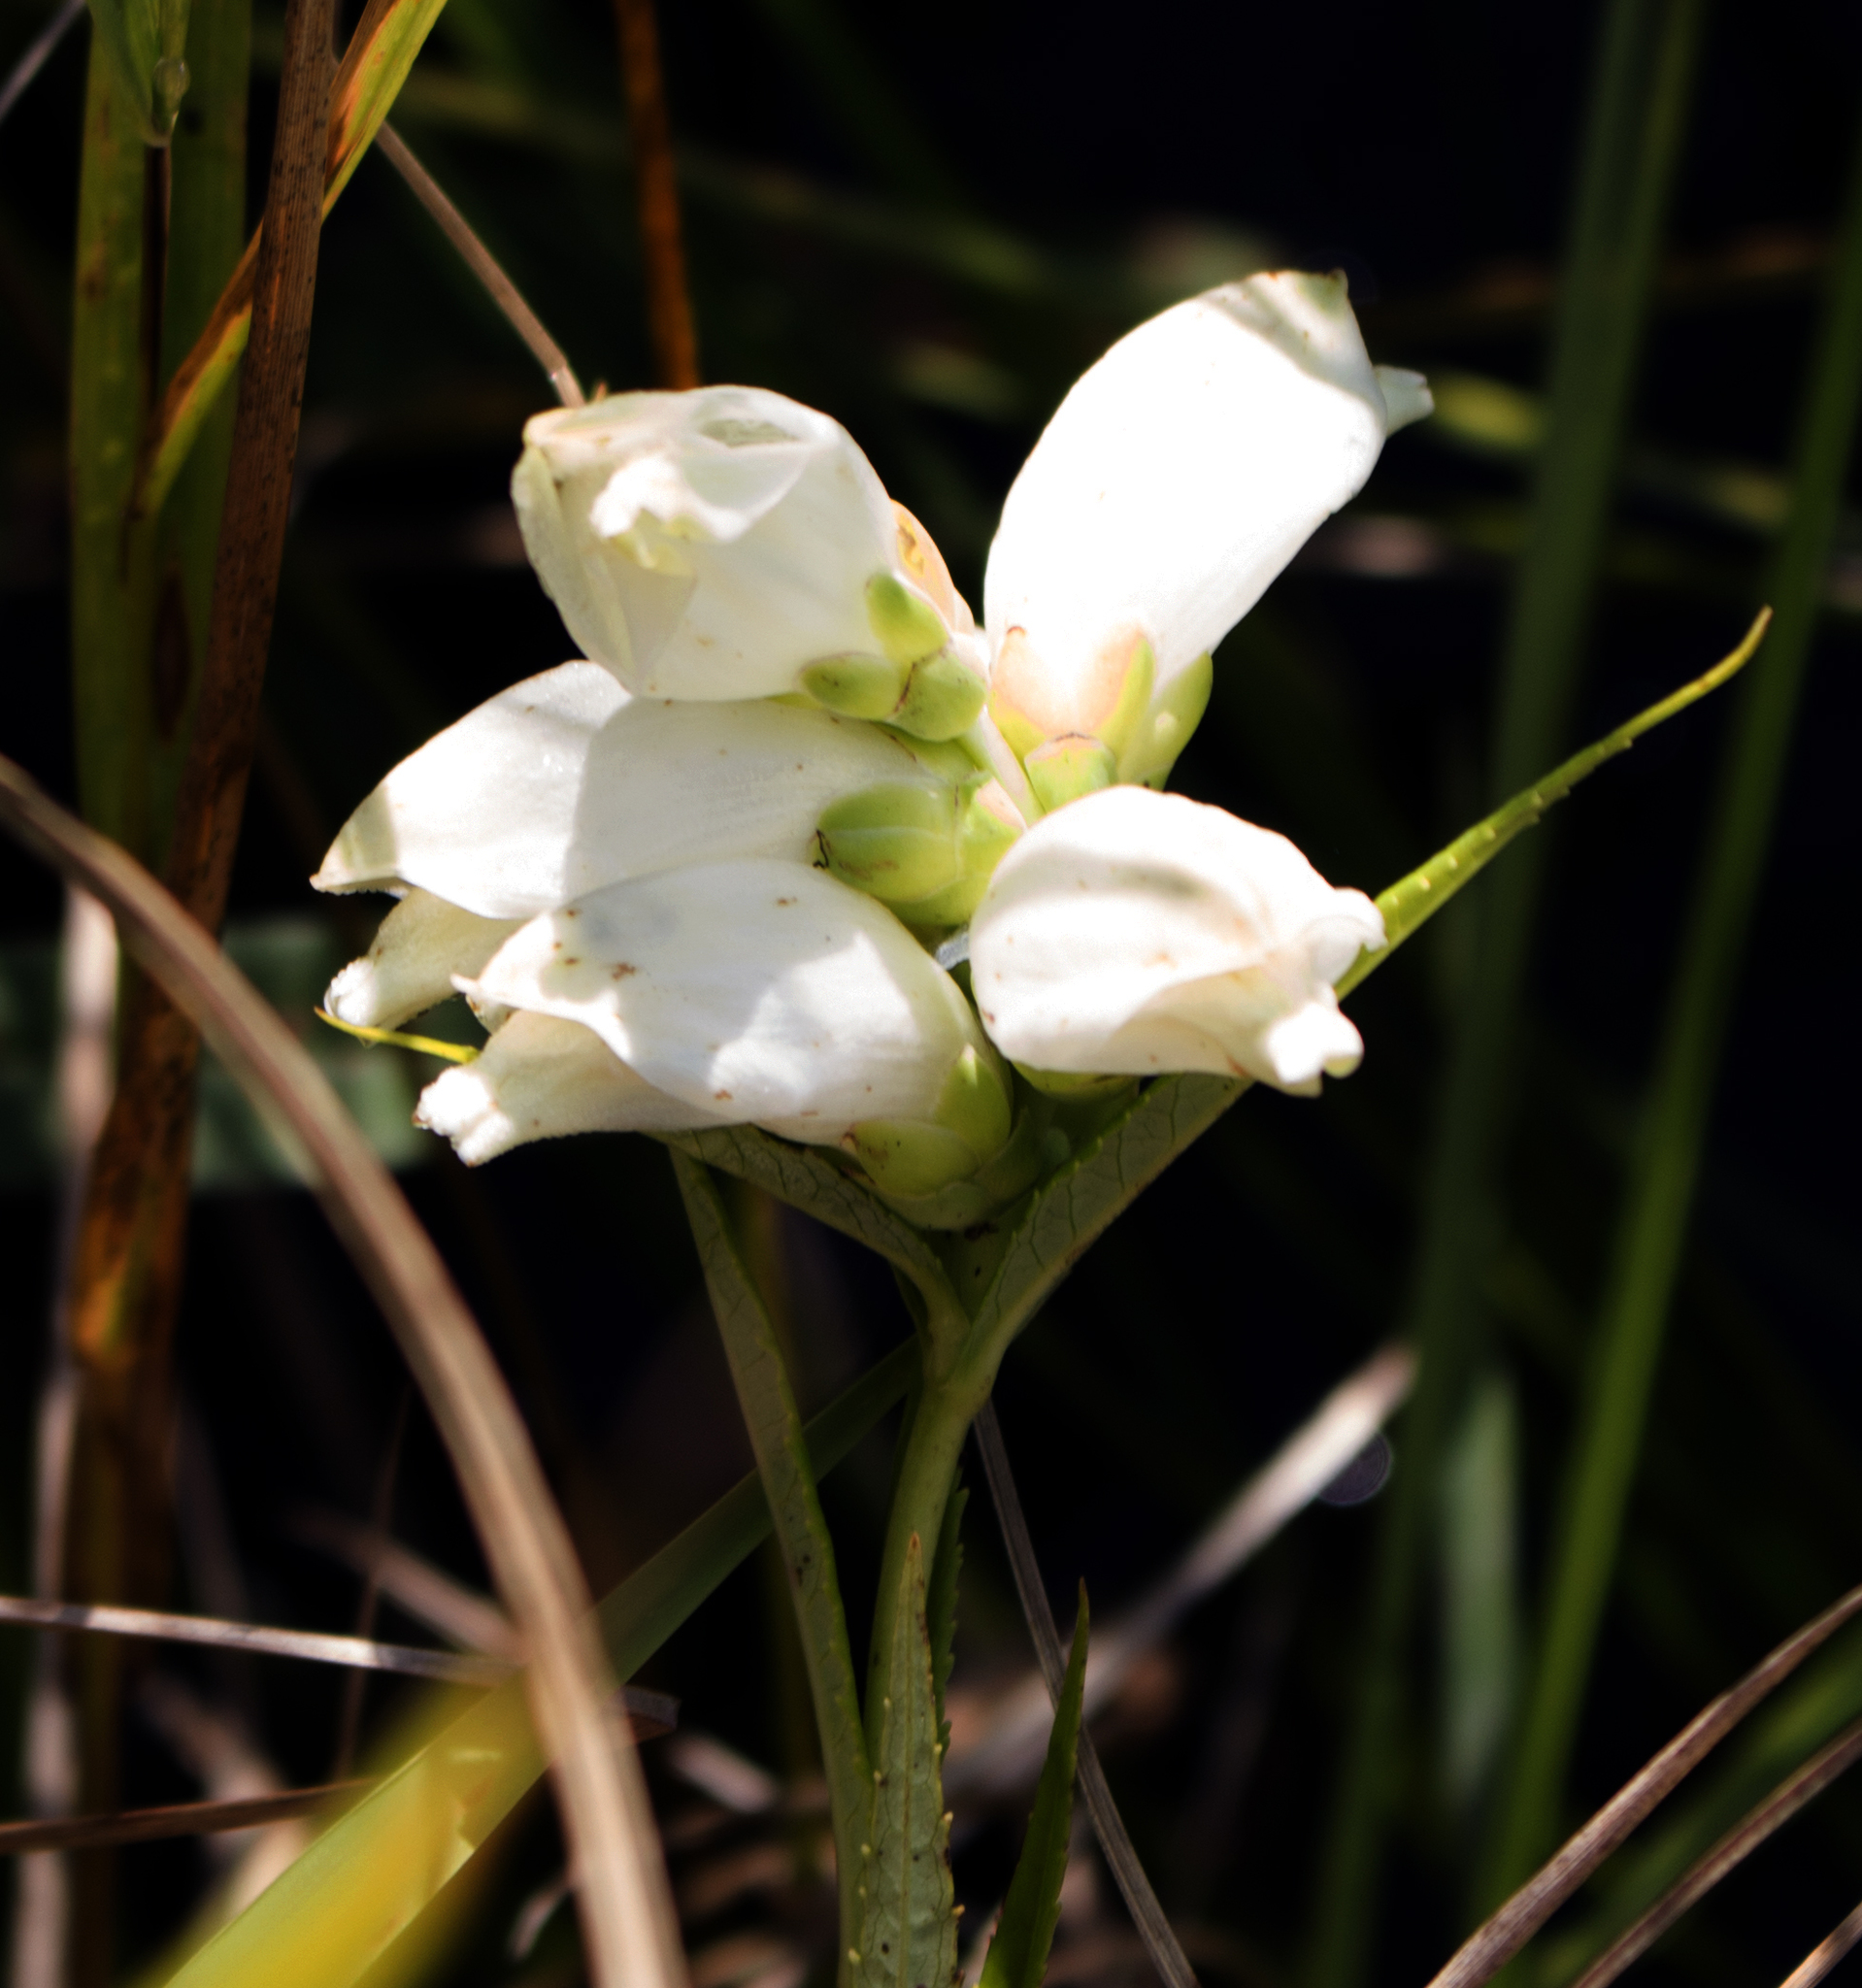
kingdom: Plantae
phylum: Tracheophyta
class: Magnoliopsida
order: Lamiales
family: Plantaginaceae
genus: Chelone
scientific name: Chelone glabra
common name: Snakehead
